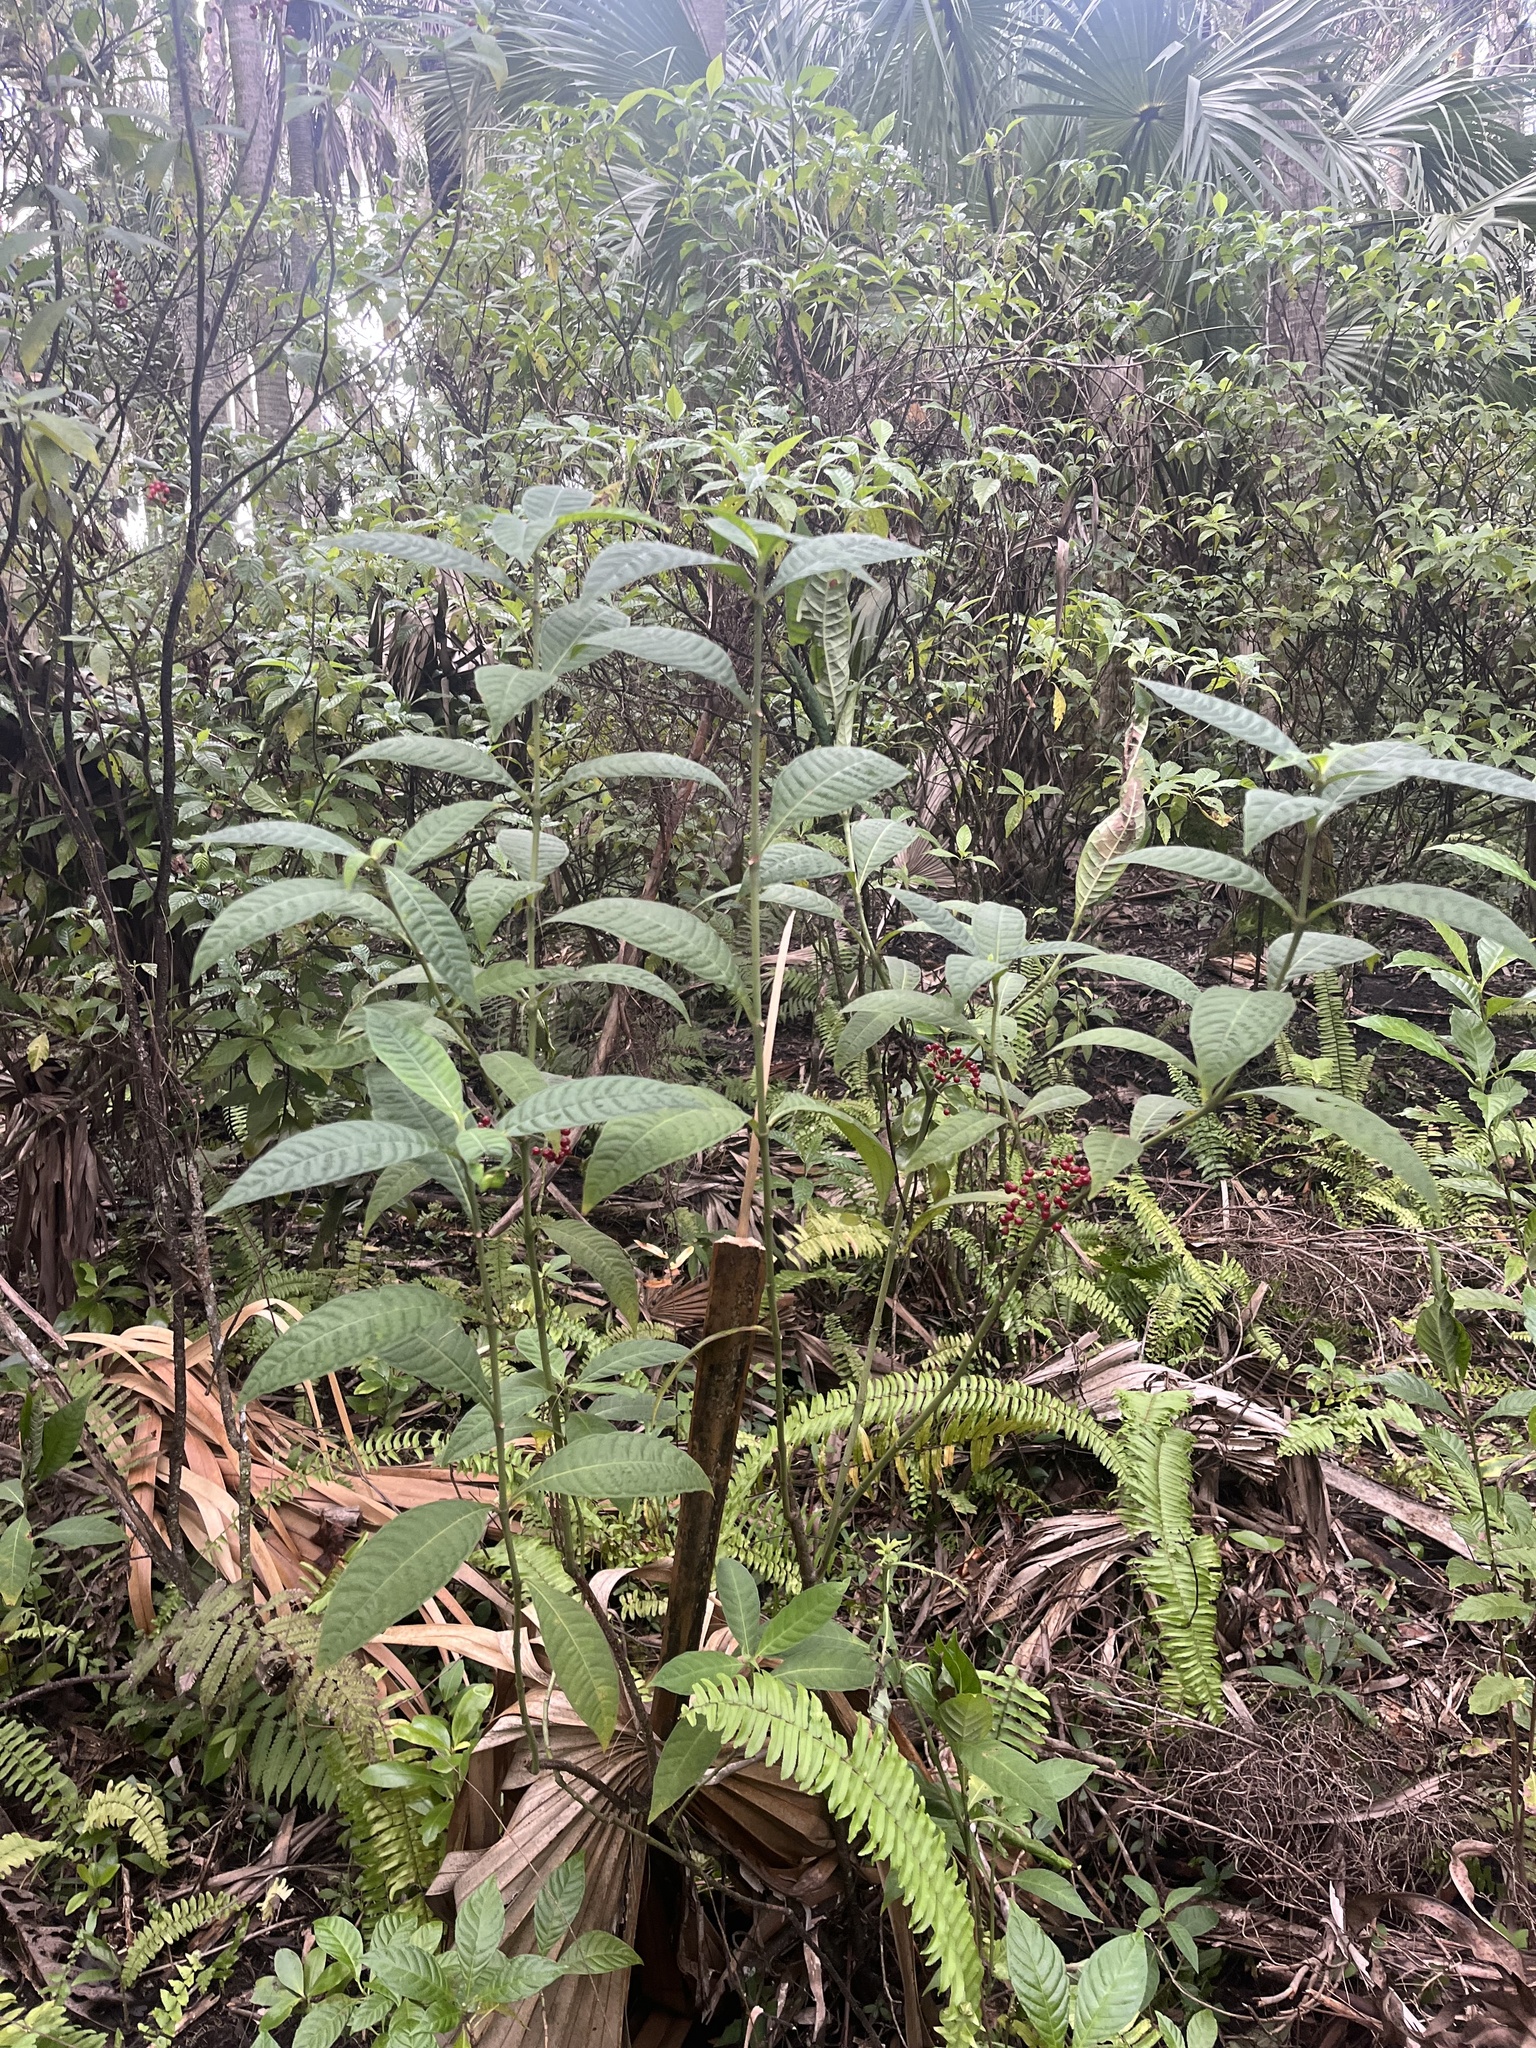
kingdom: Plantae
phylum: Tracheophyta
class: Magnoliopsida
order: Gentianales
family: Rubiaceae
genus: Psychotria
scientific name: Psychotria tenuifolia
